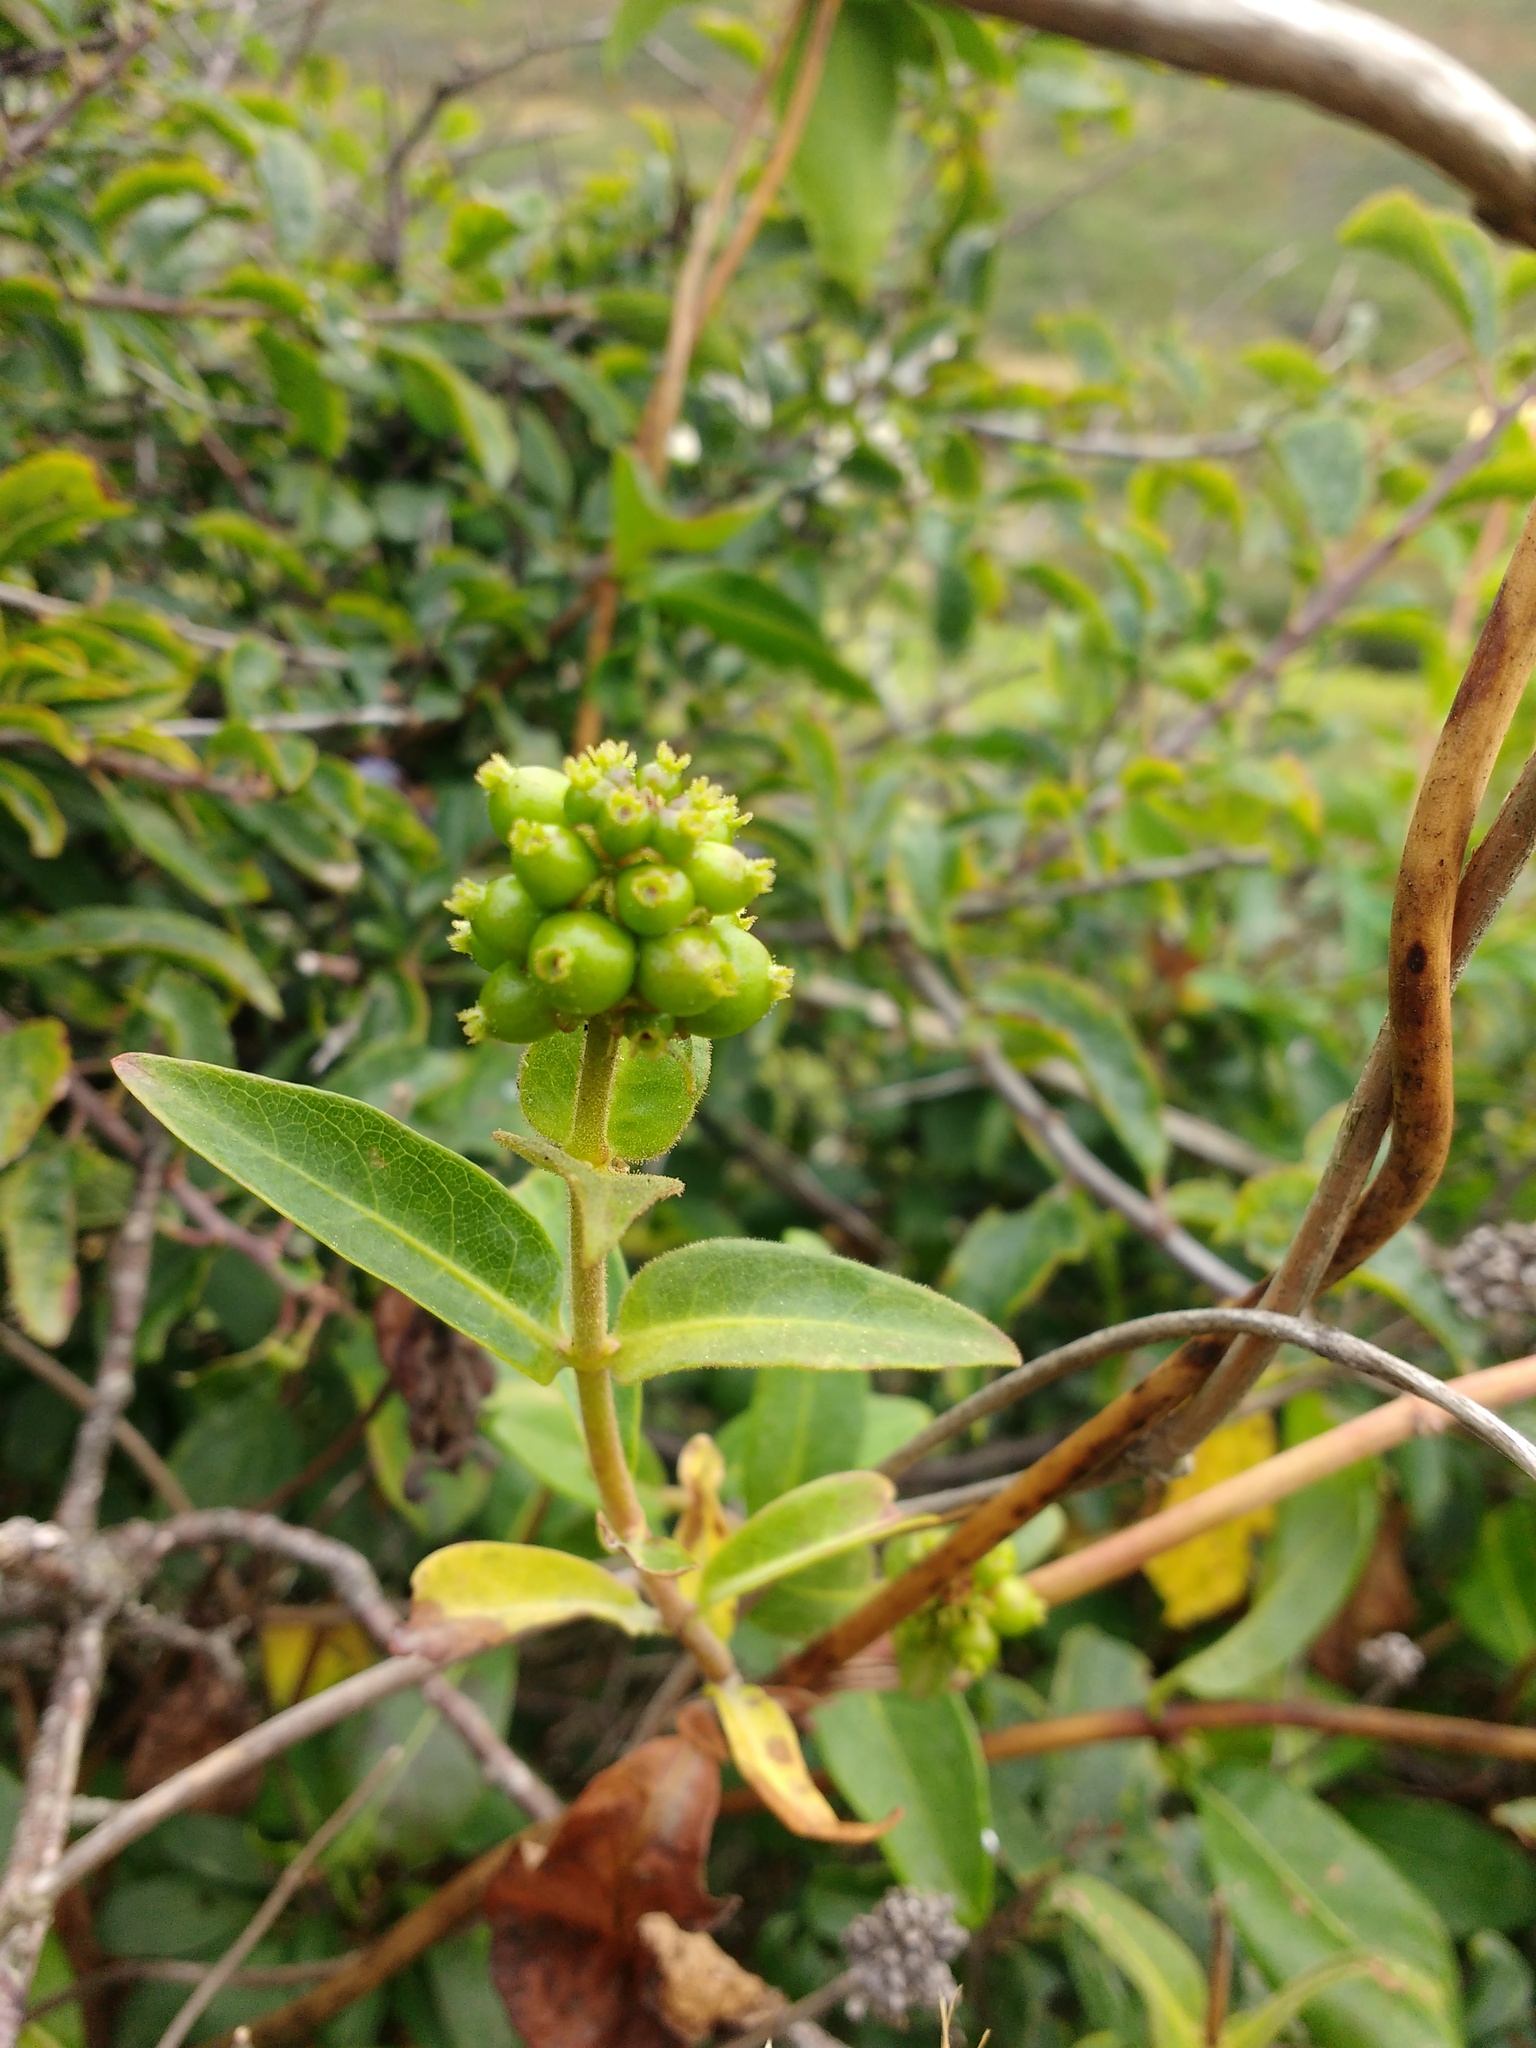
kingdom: Plantae
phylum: Tracheophyta
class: Magnoliopsida
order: Dipsacales
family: Caprifoliaceae
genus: Lonicera
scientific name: Lonicera periclymenum
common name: European honeysuckle
